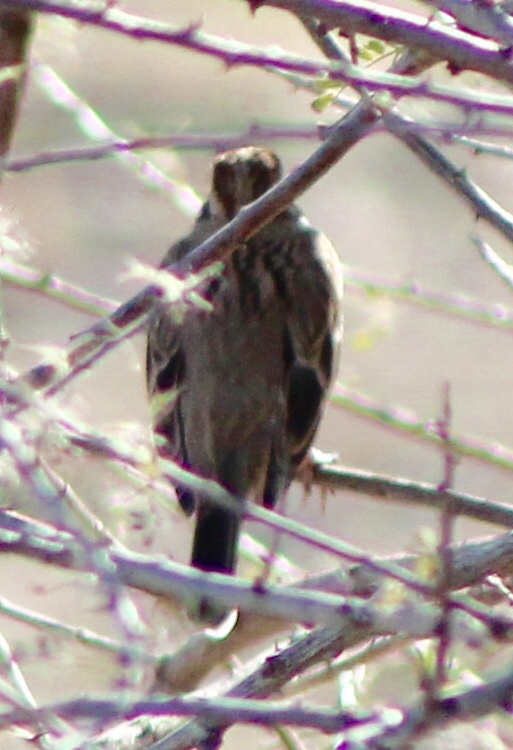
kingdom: Animalia
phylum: Chordata
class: Aves
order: Passeriformes
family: Passerellidae
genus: Chondestes
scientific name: Chondestes grammacus
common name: Lark sparrow
